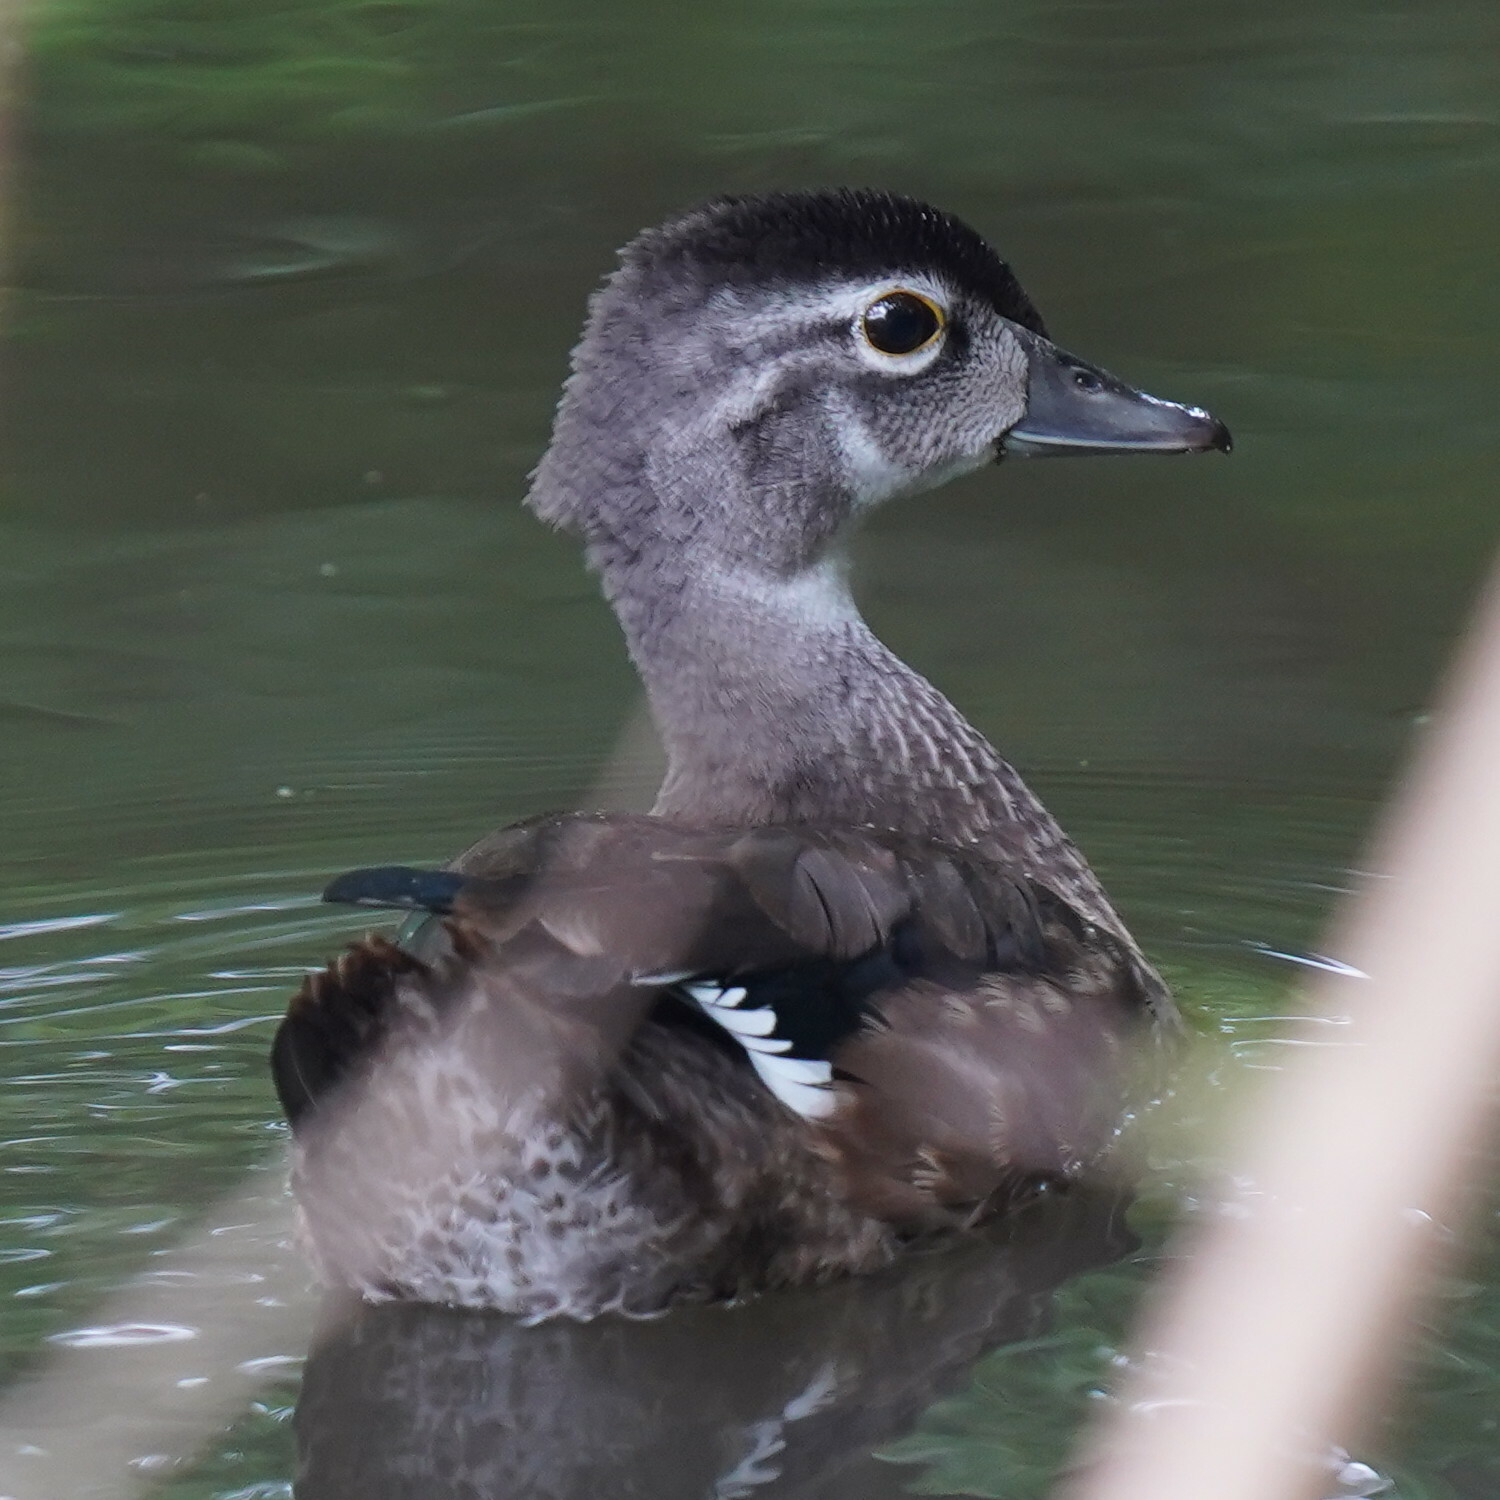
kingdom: Animalia
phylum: Chordata
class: Aves
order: Anseriformes
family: Anatidae
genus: Aix
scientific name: Aix sponsa
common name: Wood duck
